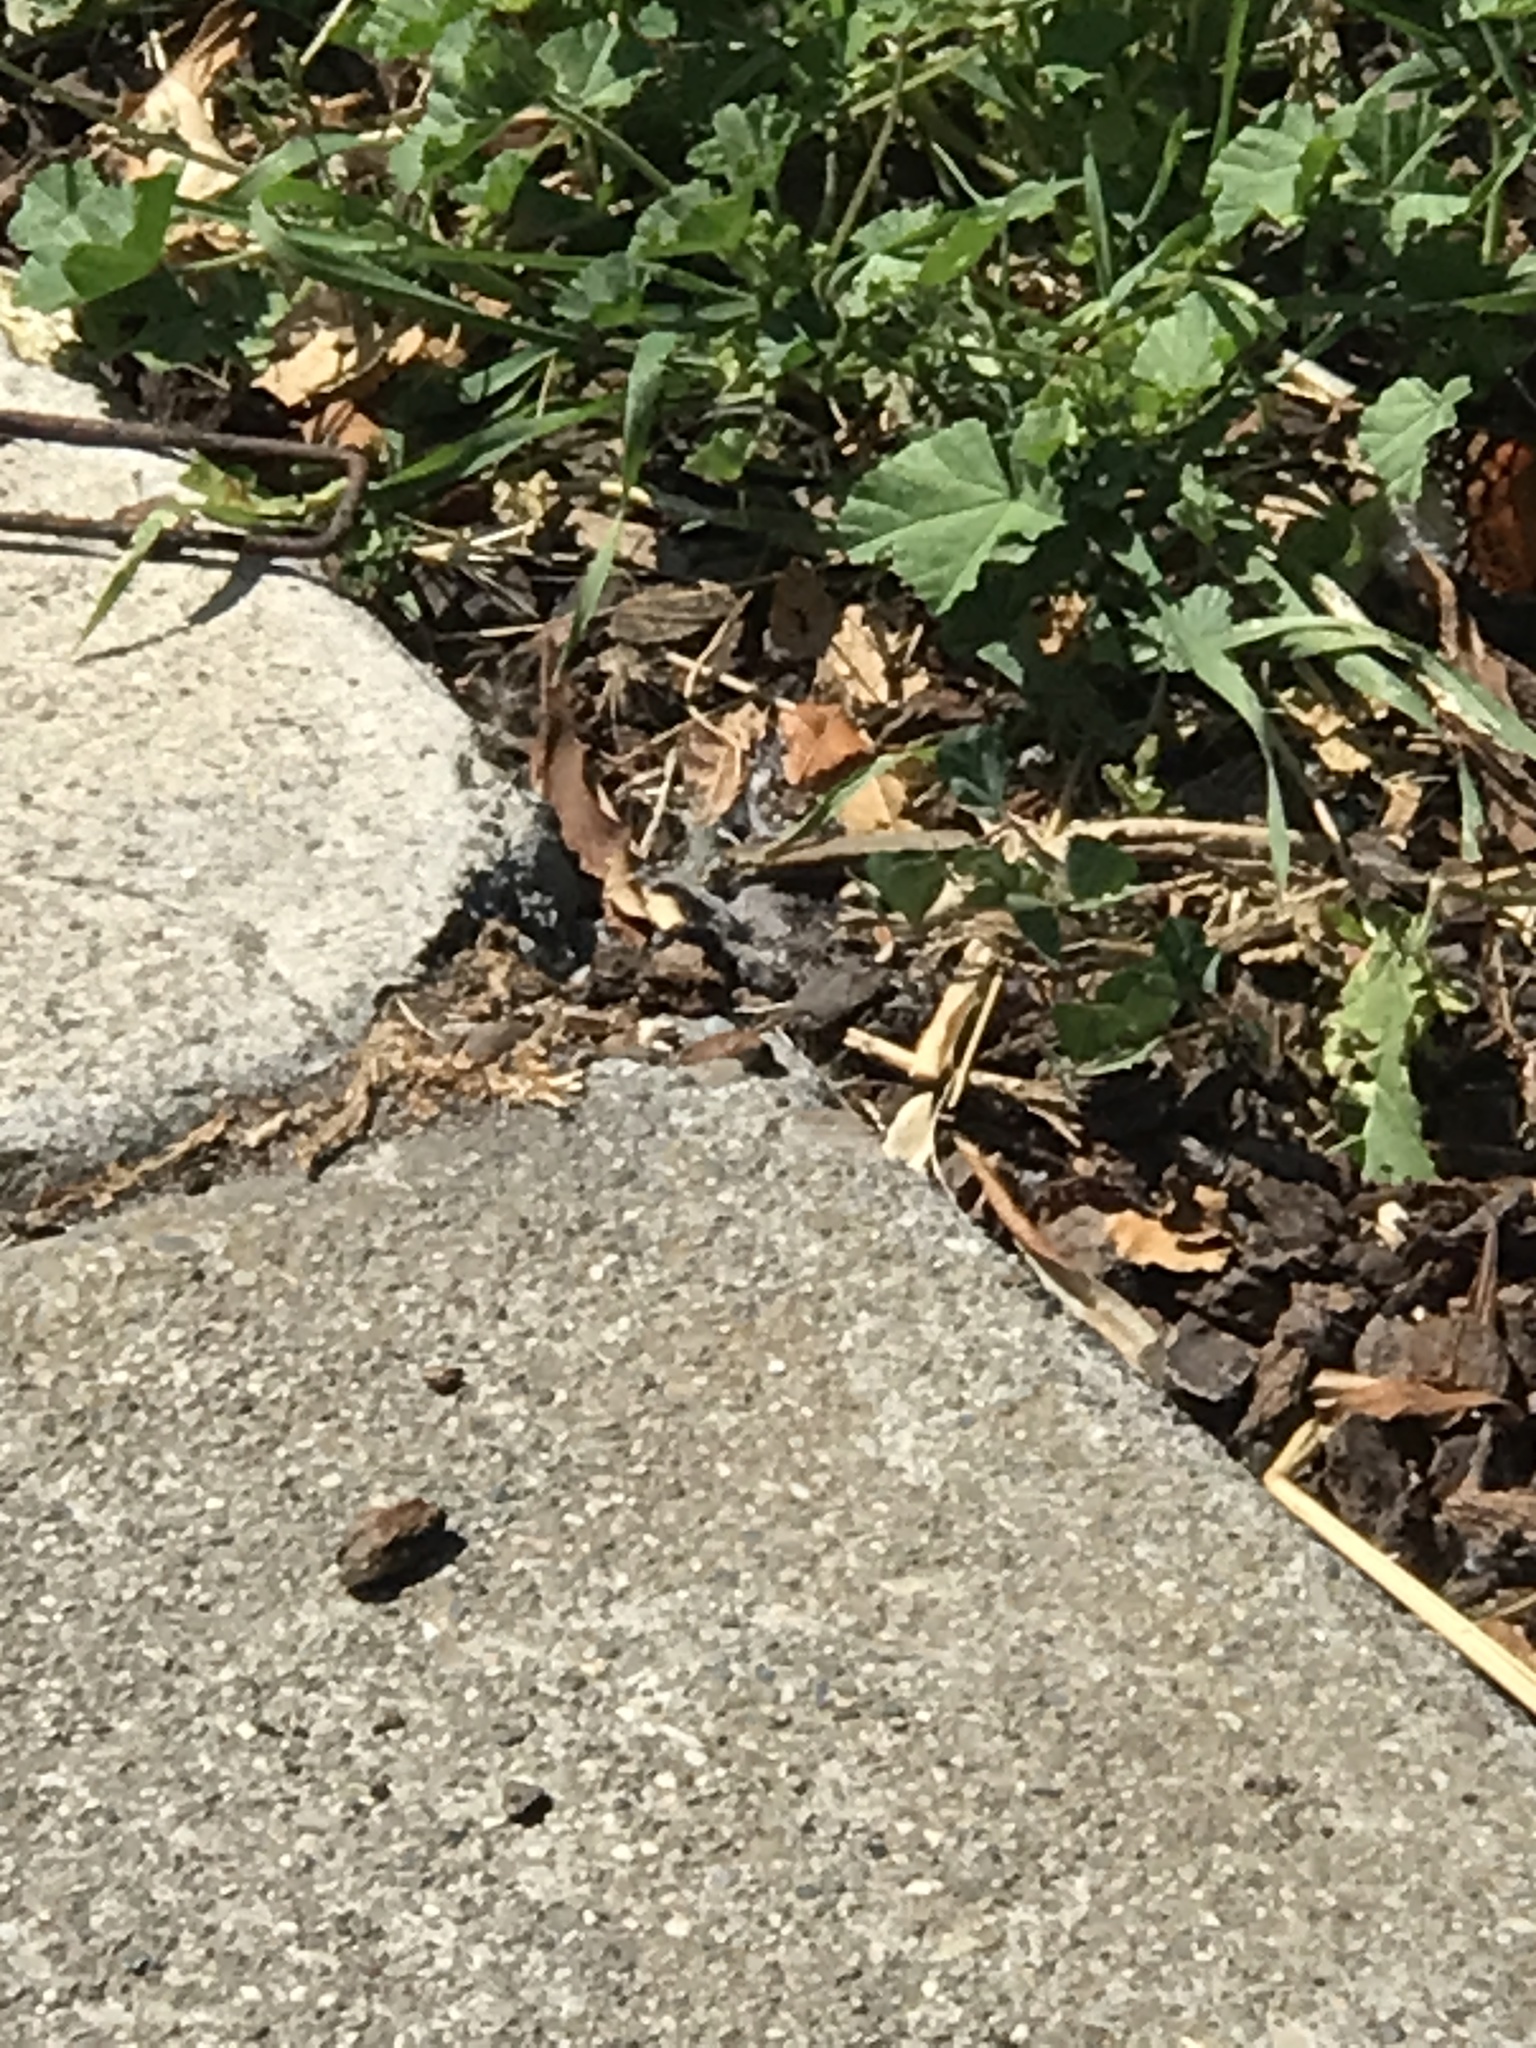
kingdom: Animalia
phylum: Arthropoda
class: Insecta
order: Lepidoptera
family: Nymphalidae
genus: Vanessa
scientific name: Vanessa annabella
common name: West coast lady
